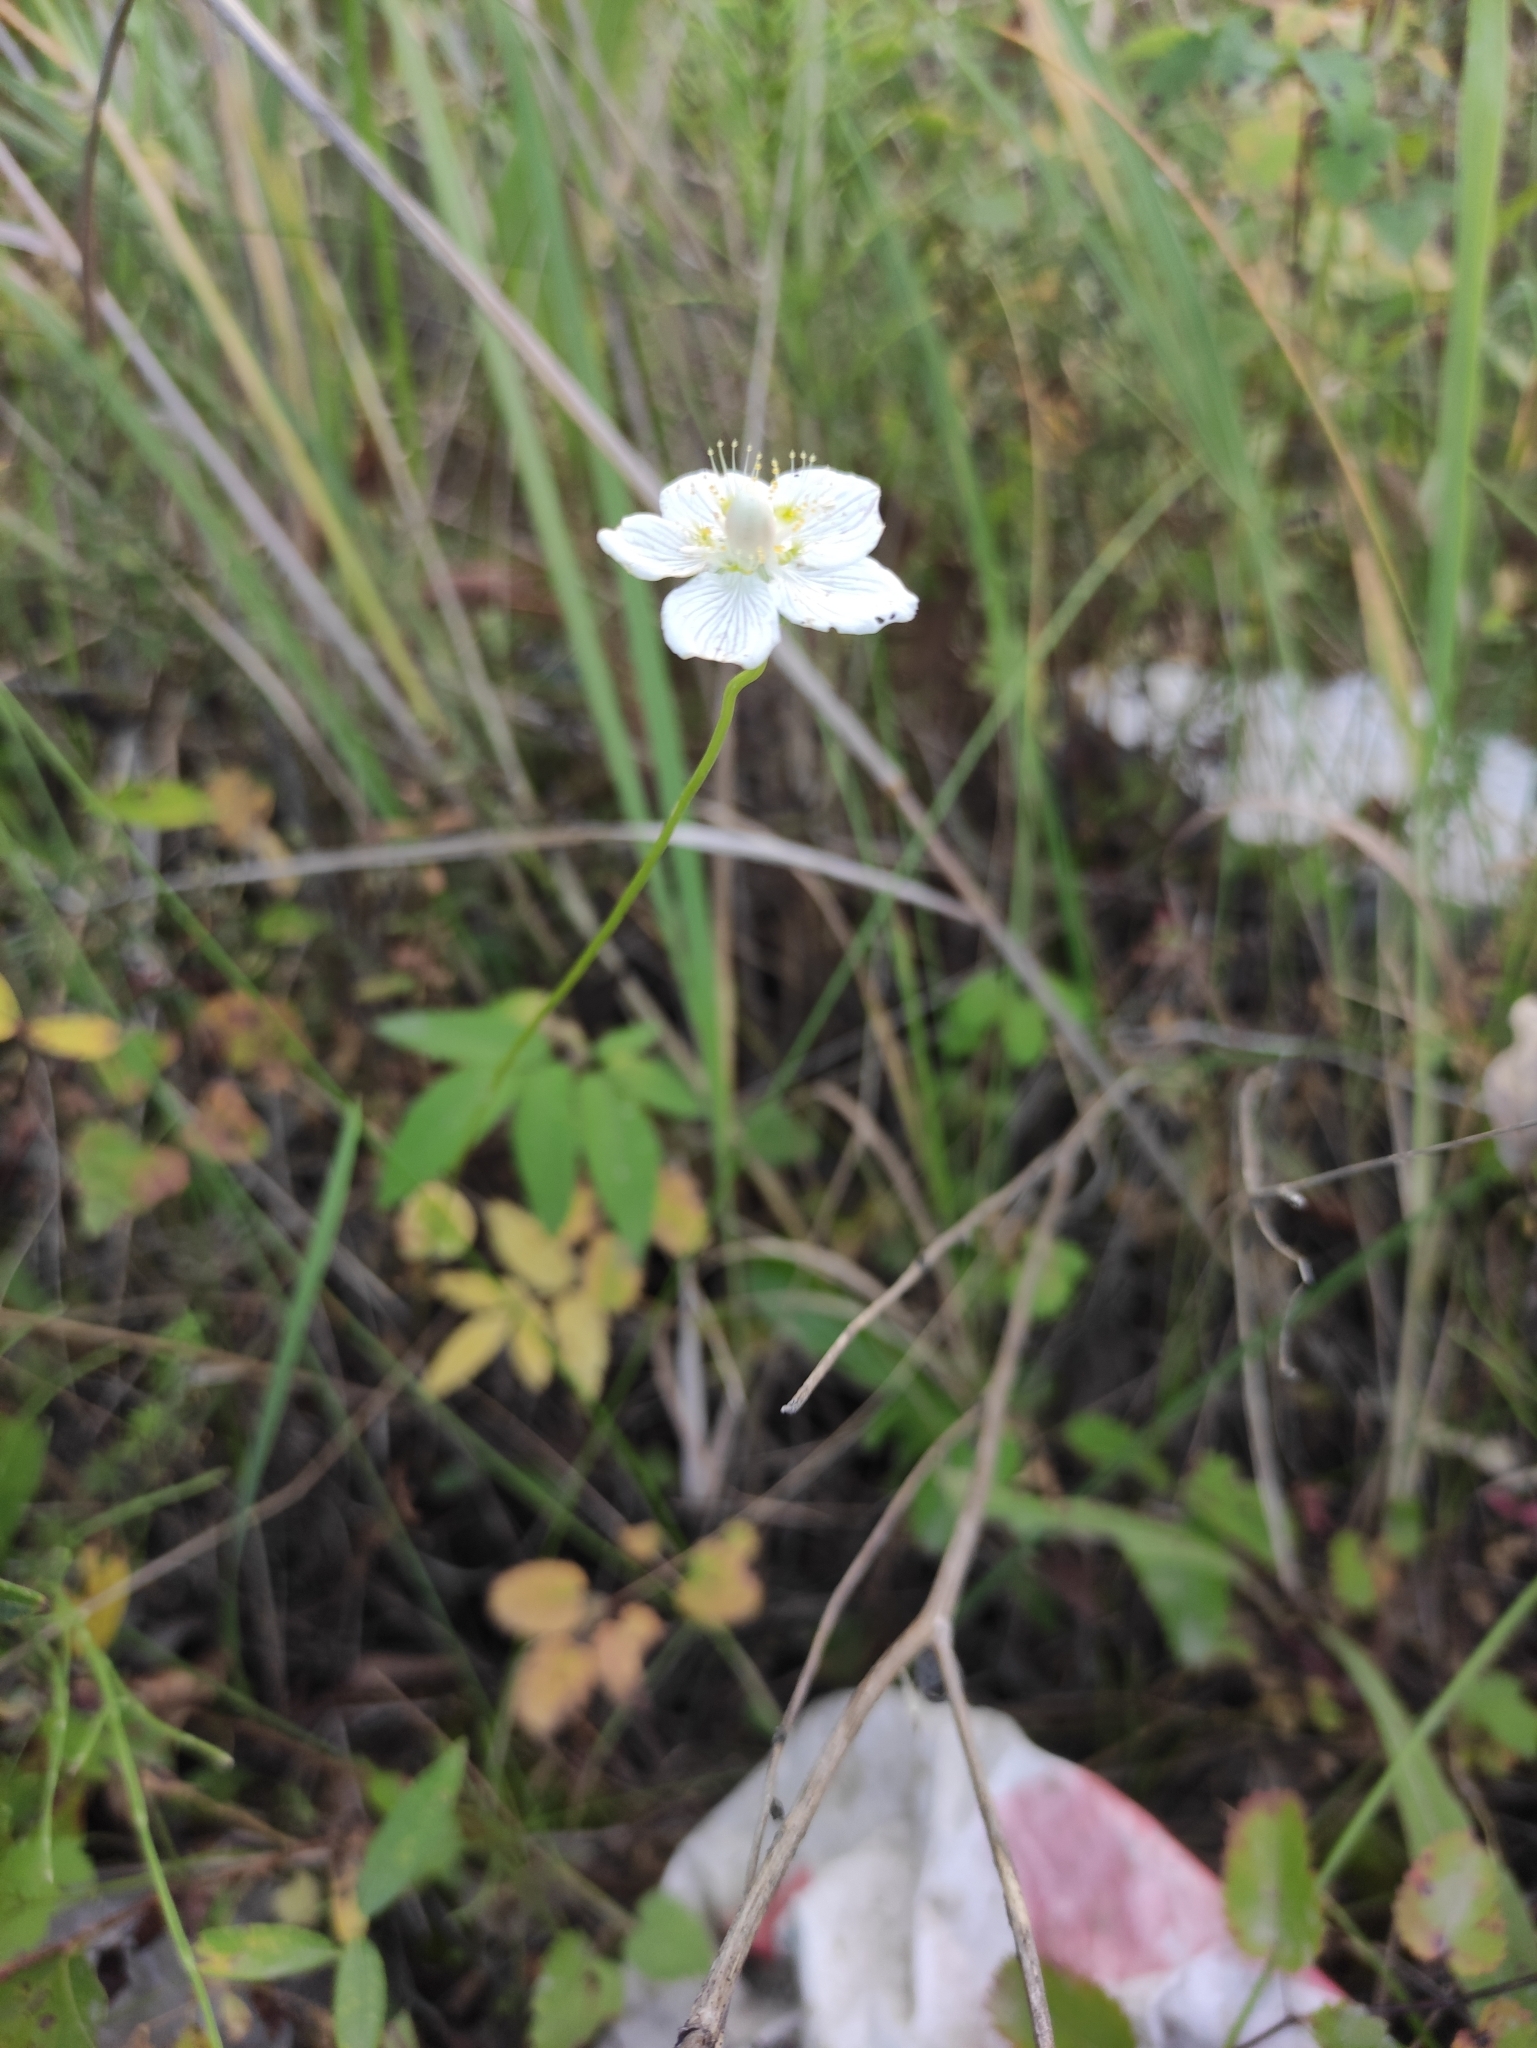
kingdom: Plantae
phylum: Tracheophyta
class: Magnoliopsida
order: Celastrales
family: Parnassiaceae
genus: Parnassia
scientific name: Parnassia palustris
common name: Grass-of-parnassus
